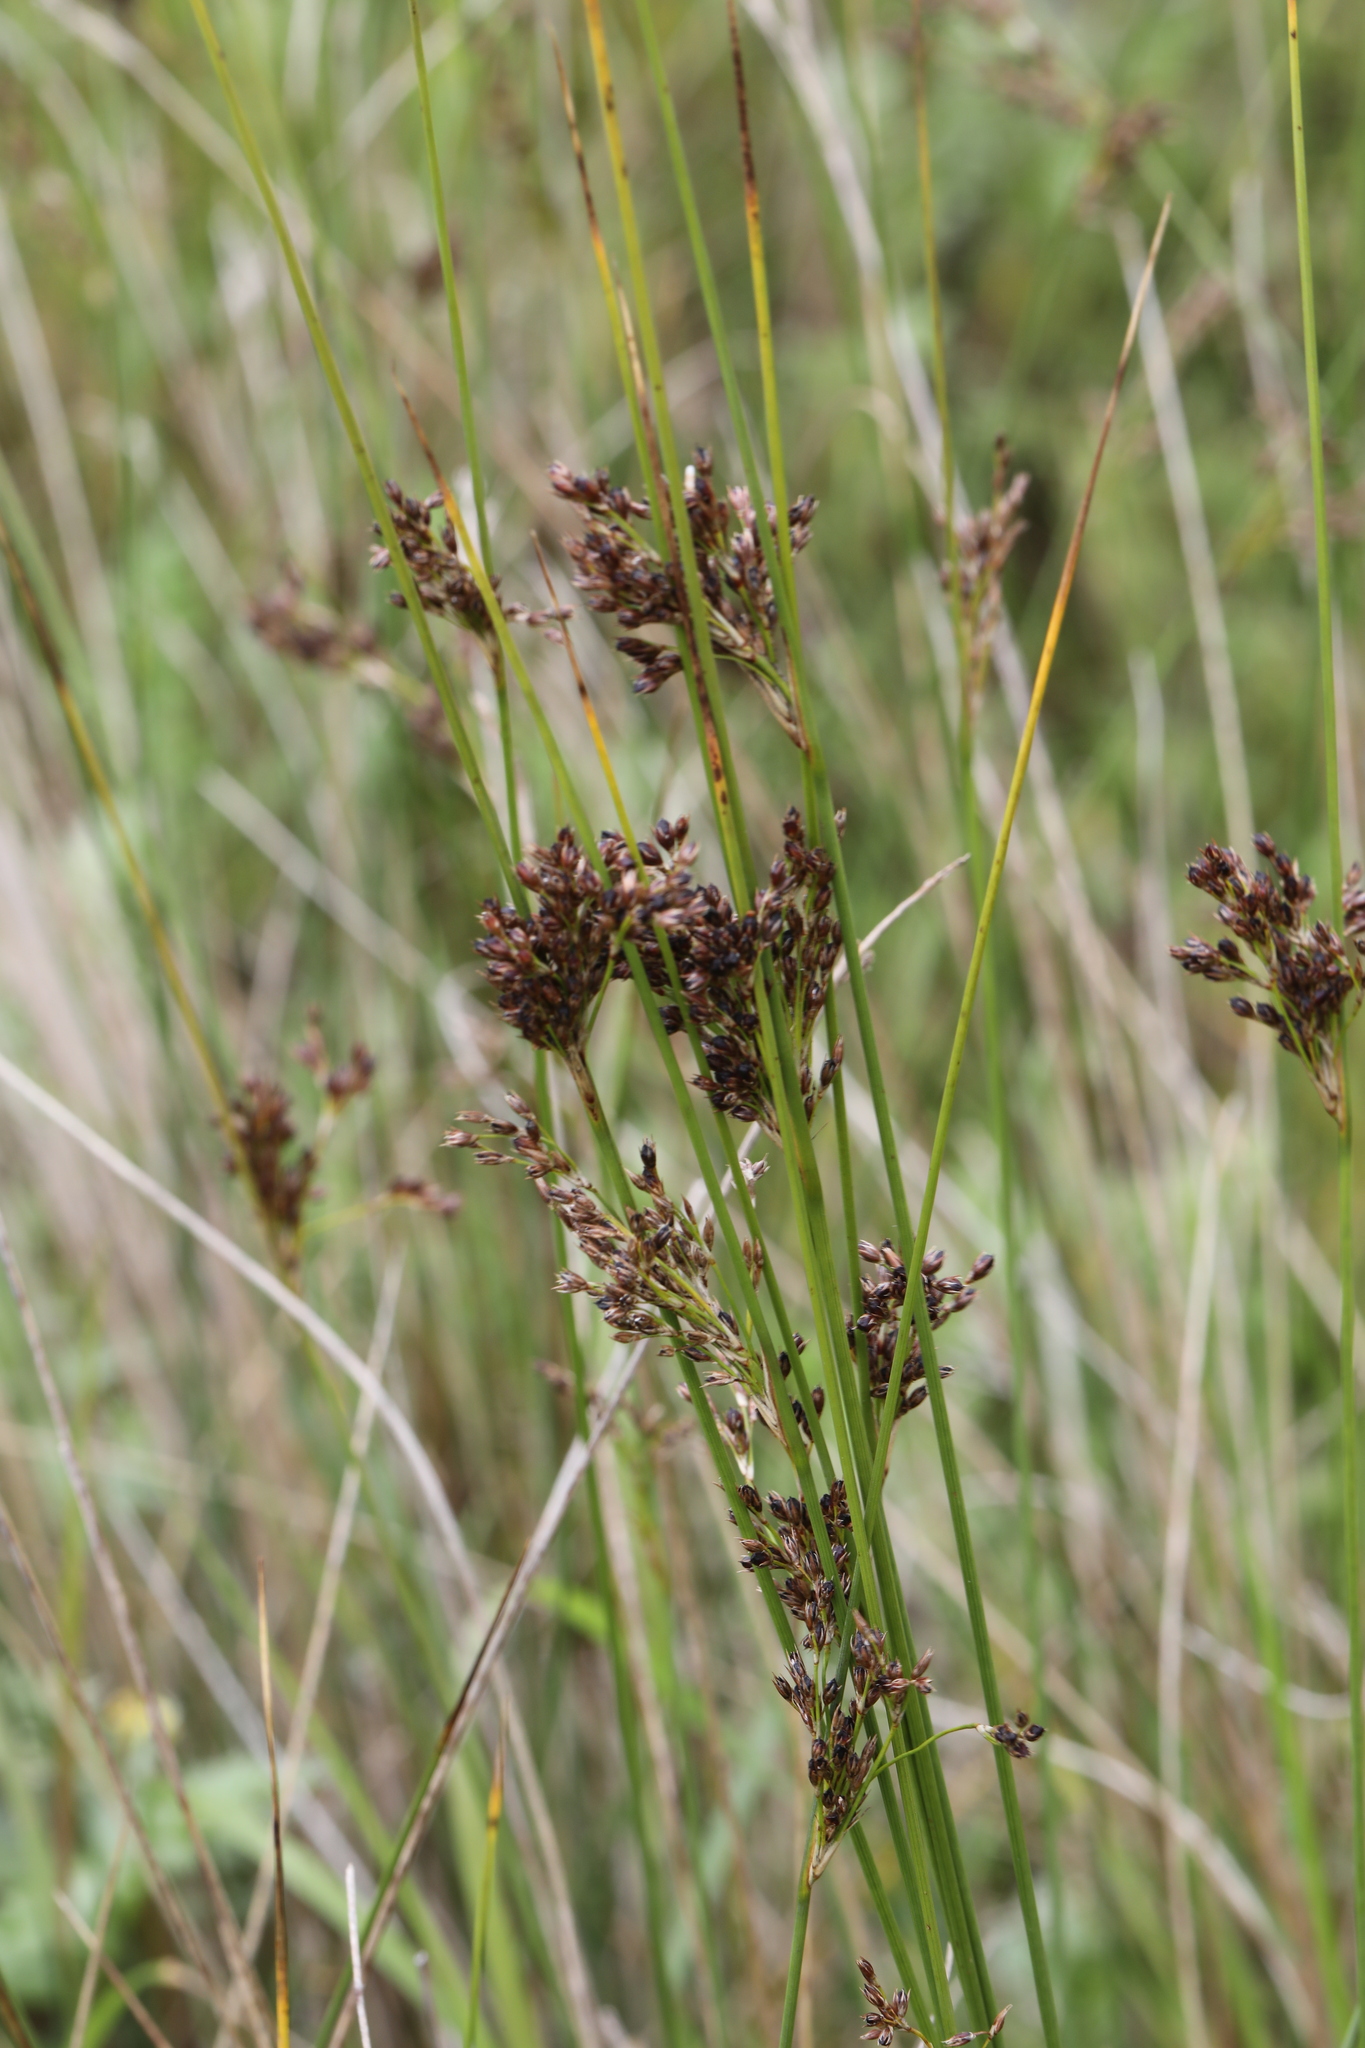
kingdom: Plantae
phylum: Tracheophyta
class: Liliopsida
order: Poales
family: Juncaceae
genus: Juncus
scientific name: Juncus inflexus
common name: Hard rush
